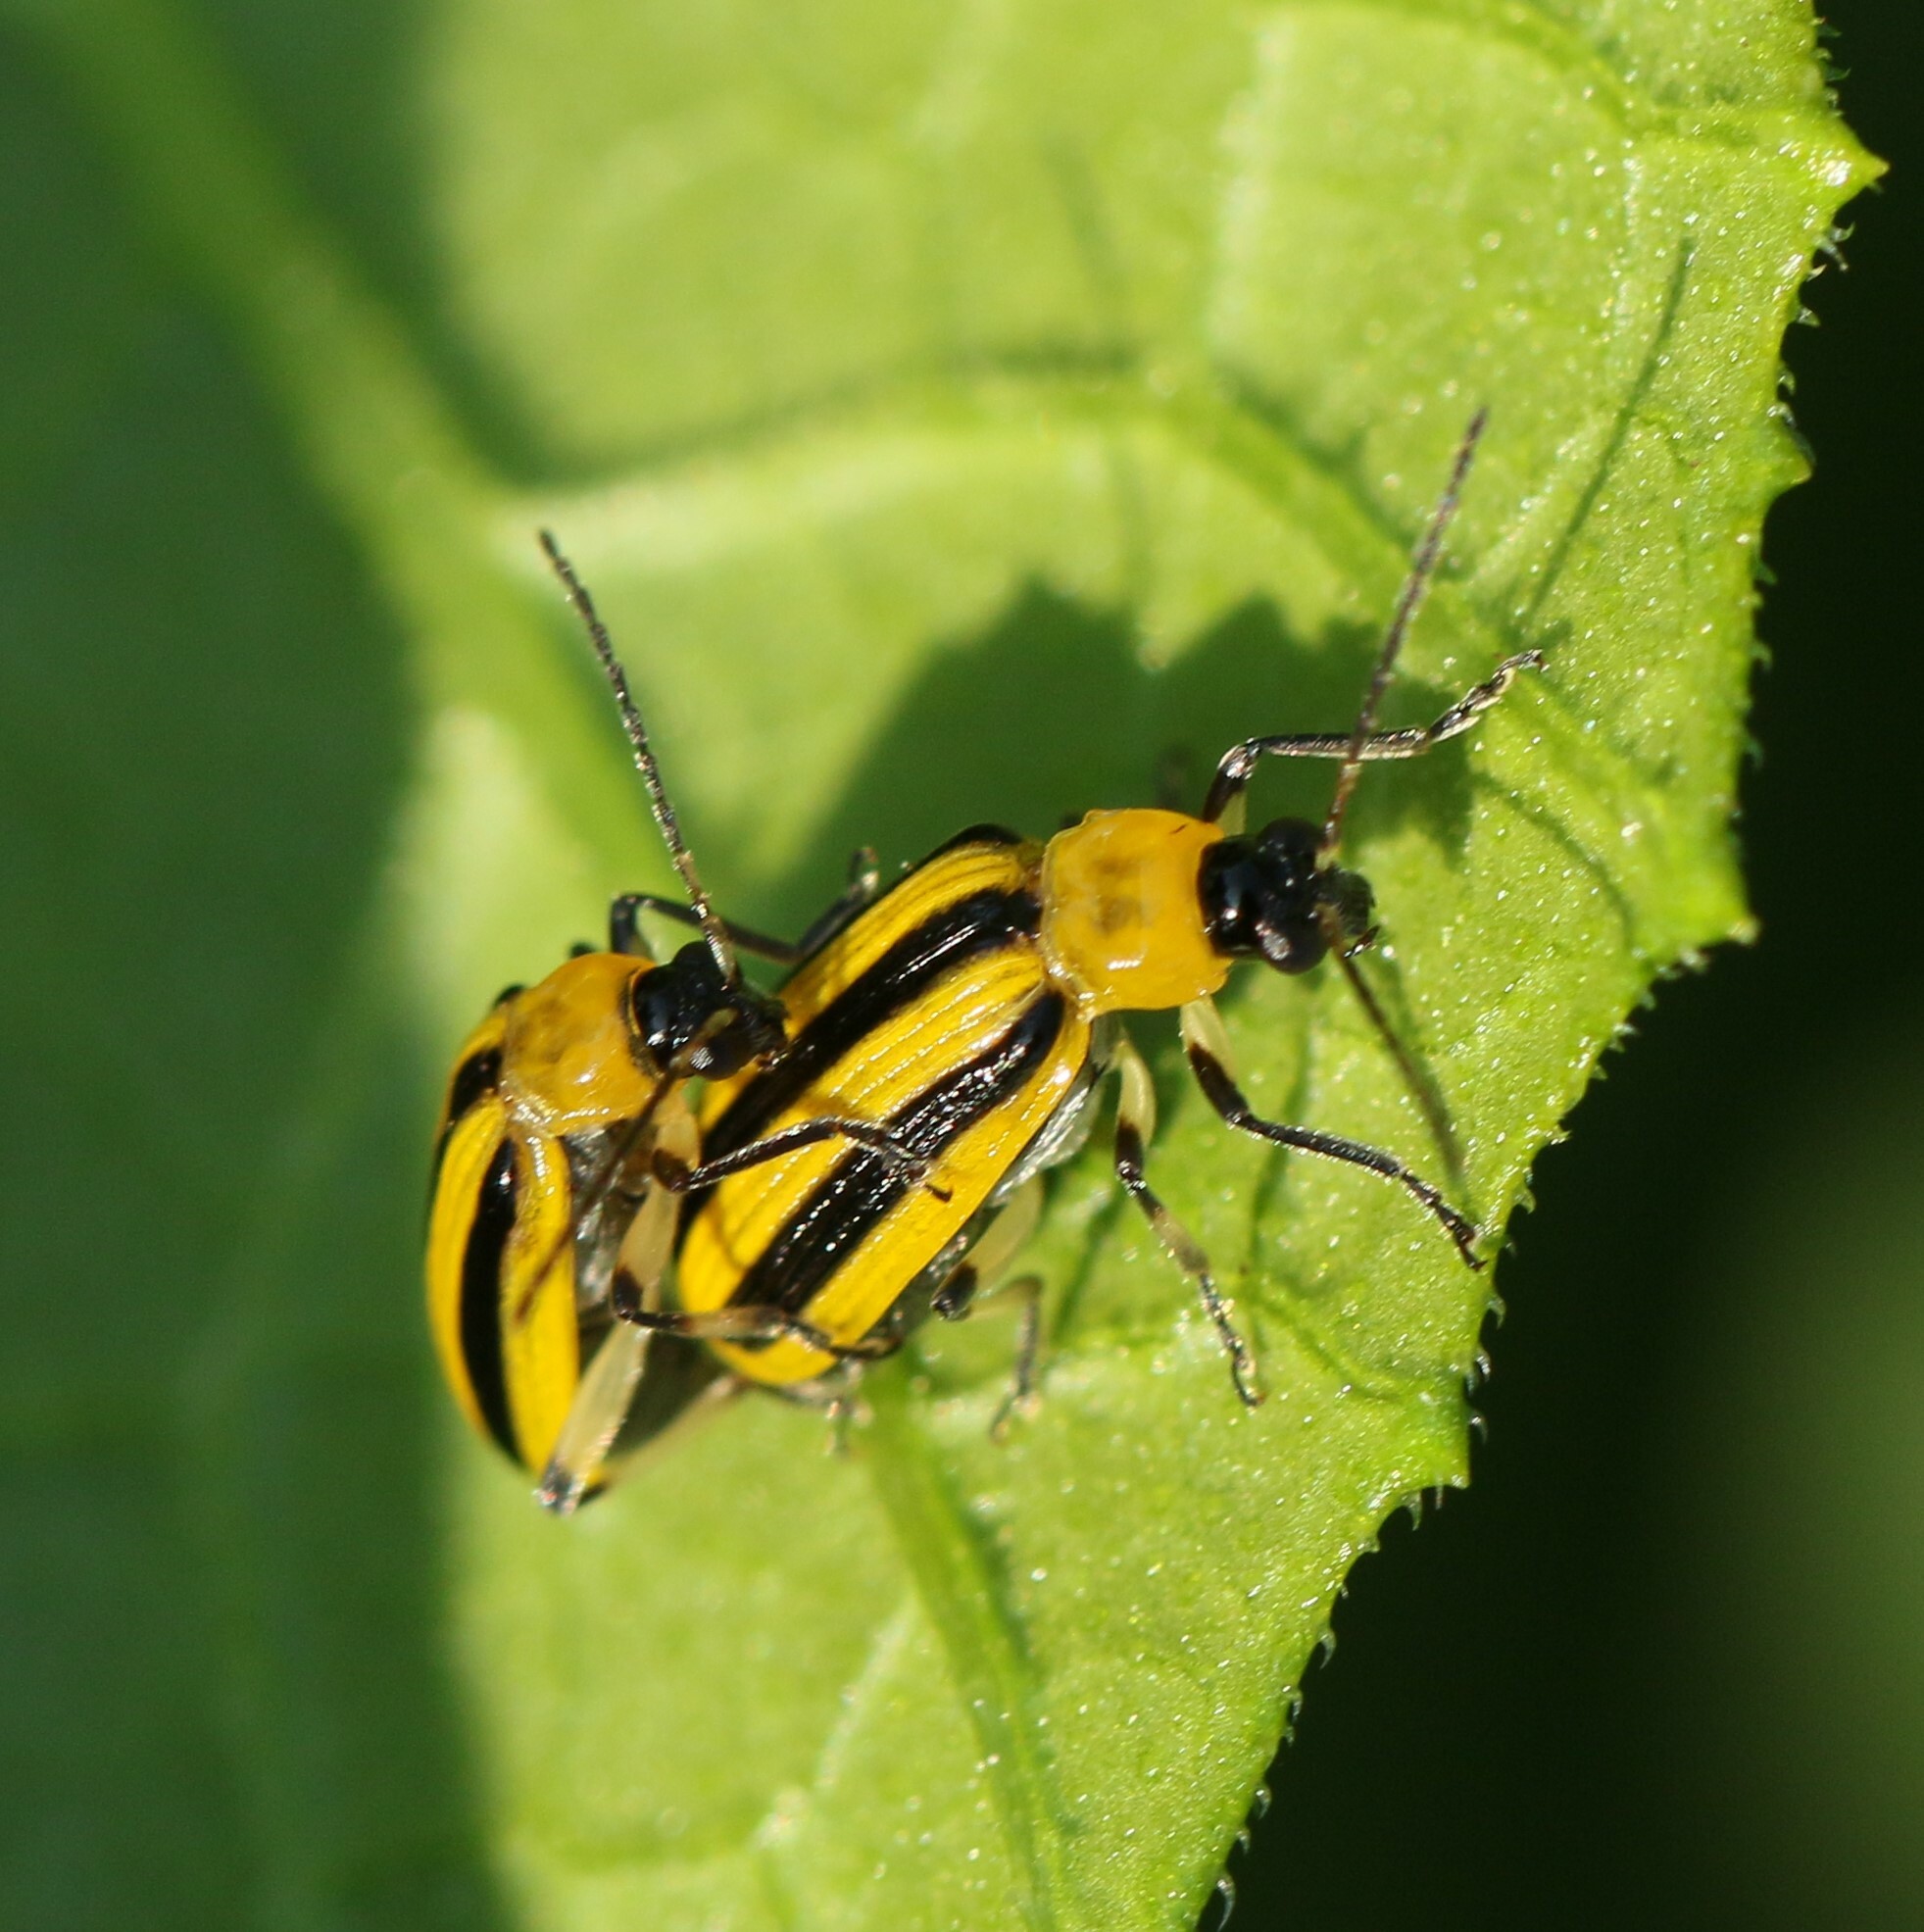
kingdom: Animalia
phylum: Arthropoda
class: Insecta
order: Coleoptera
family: Chrysomelidae
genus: Acalymma
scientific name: Acalymma vittatum
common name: Striped cucumber beetle
